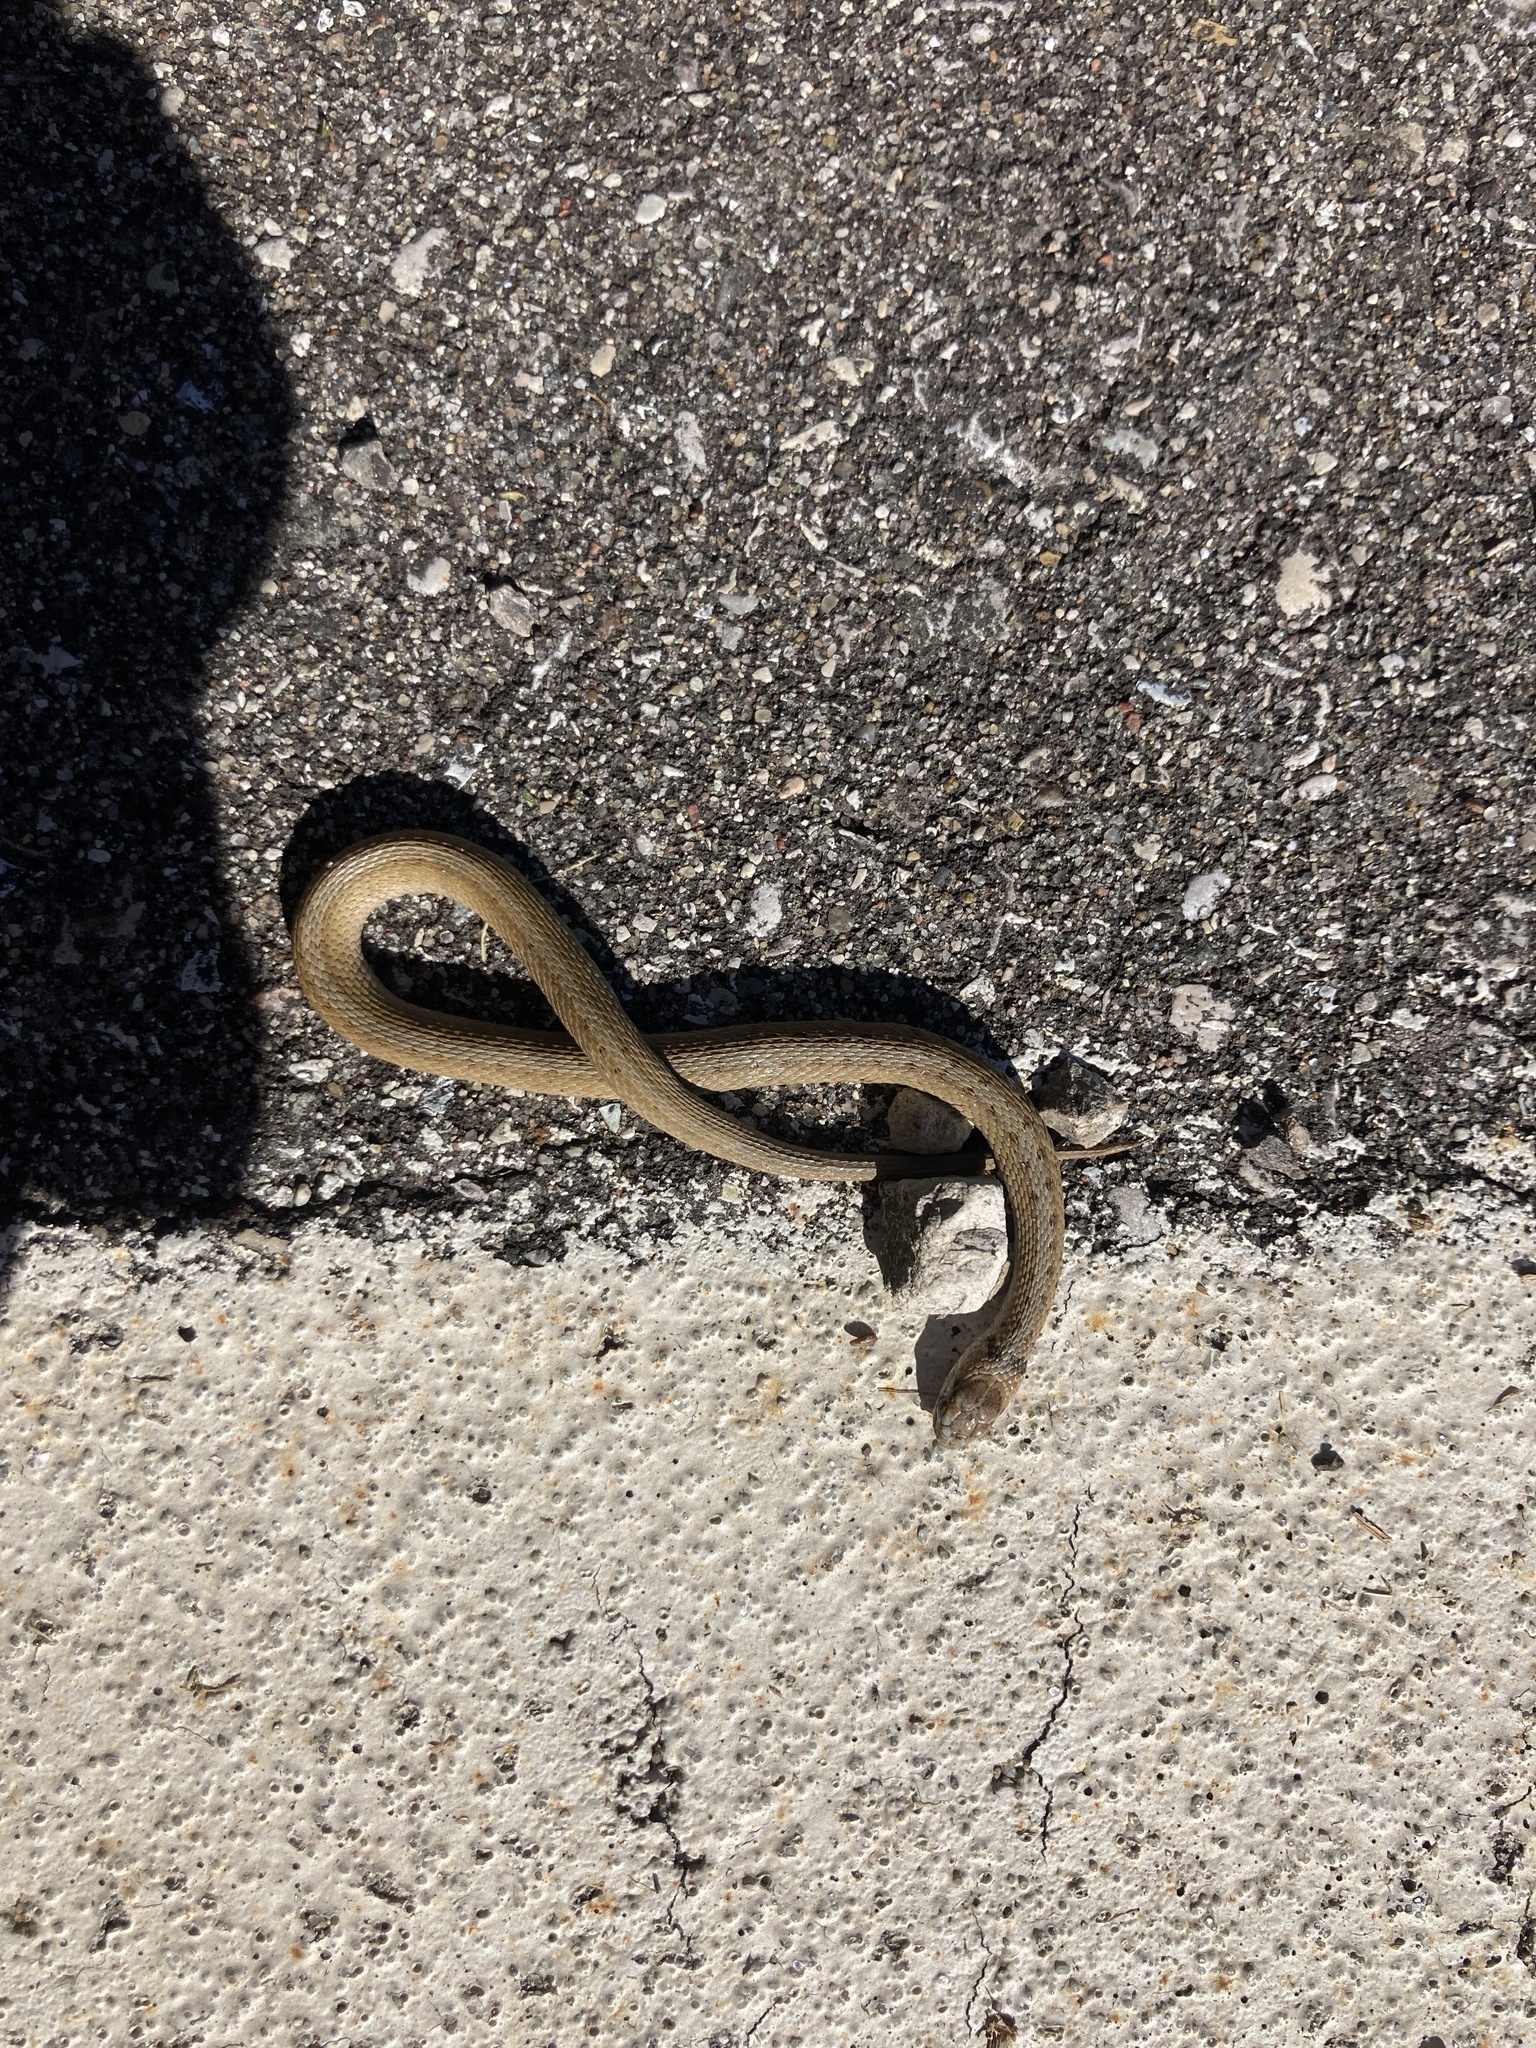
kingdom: Animalia
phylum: Chordata
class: Squamata
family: Colubridae
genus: Storeria
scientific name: Storeria dekayi
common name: (dekay’s) brown snake
